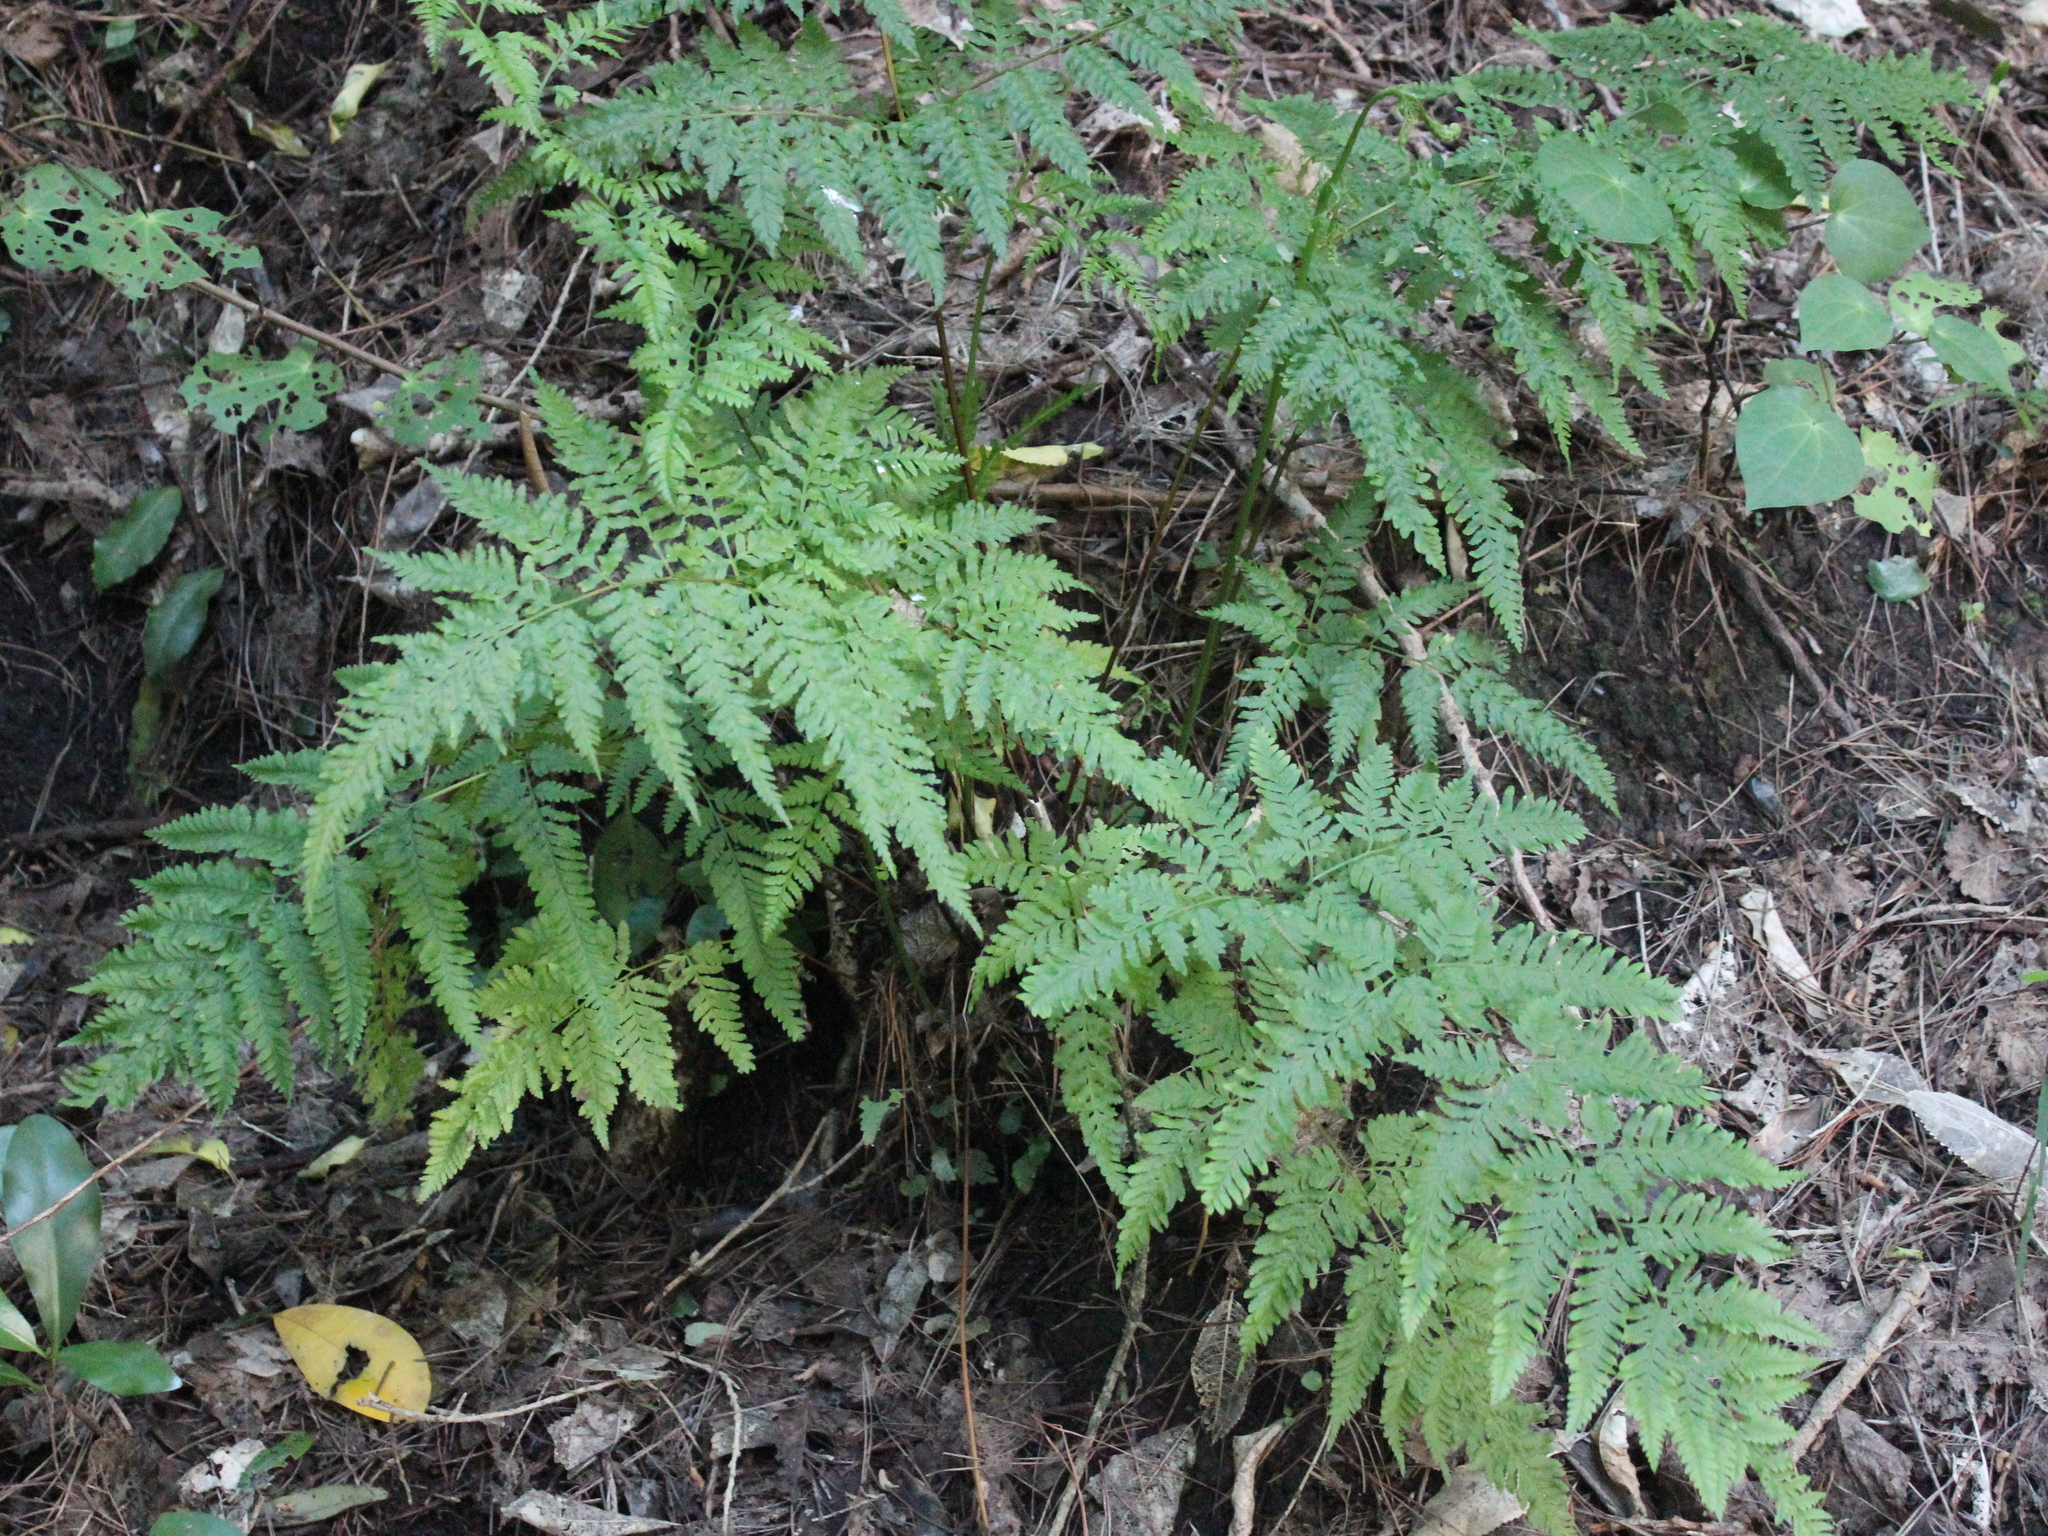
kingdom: Plantae
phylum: Tracheophyta
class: Polypodiopsida
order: Polypodiales
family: Pteridaceae
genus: Pteris
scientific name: Pteris tremula
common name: Australian brake
